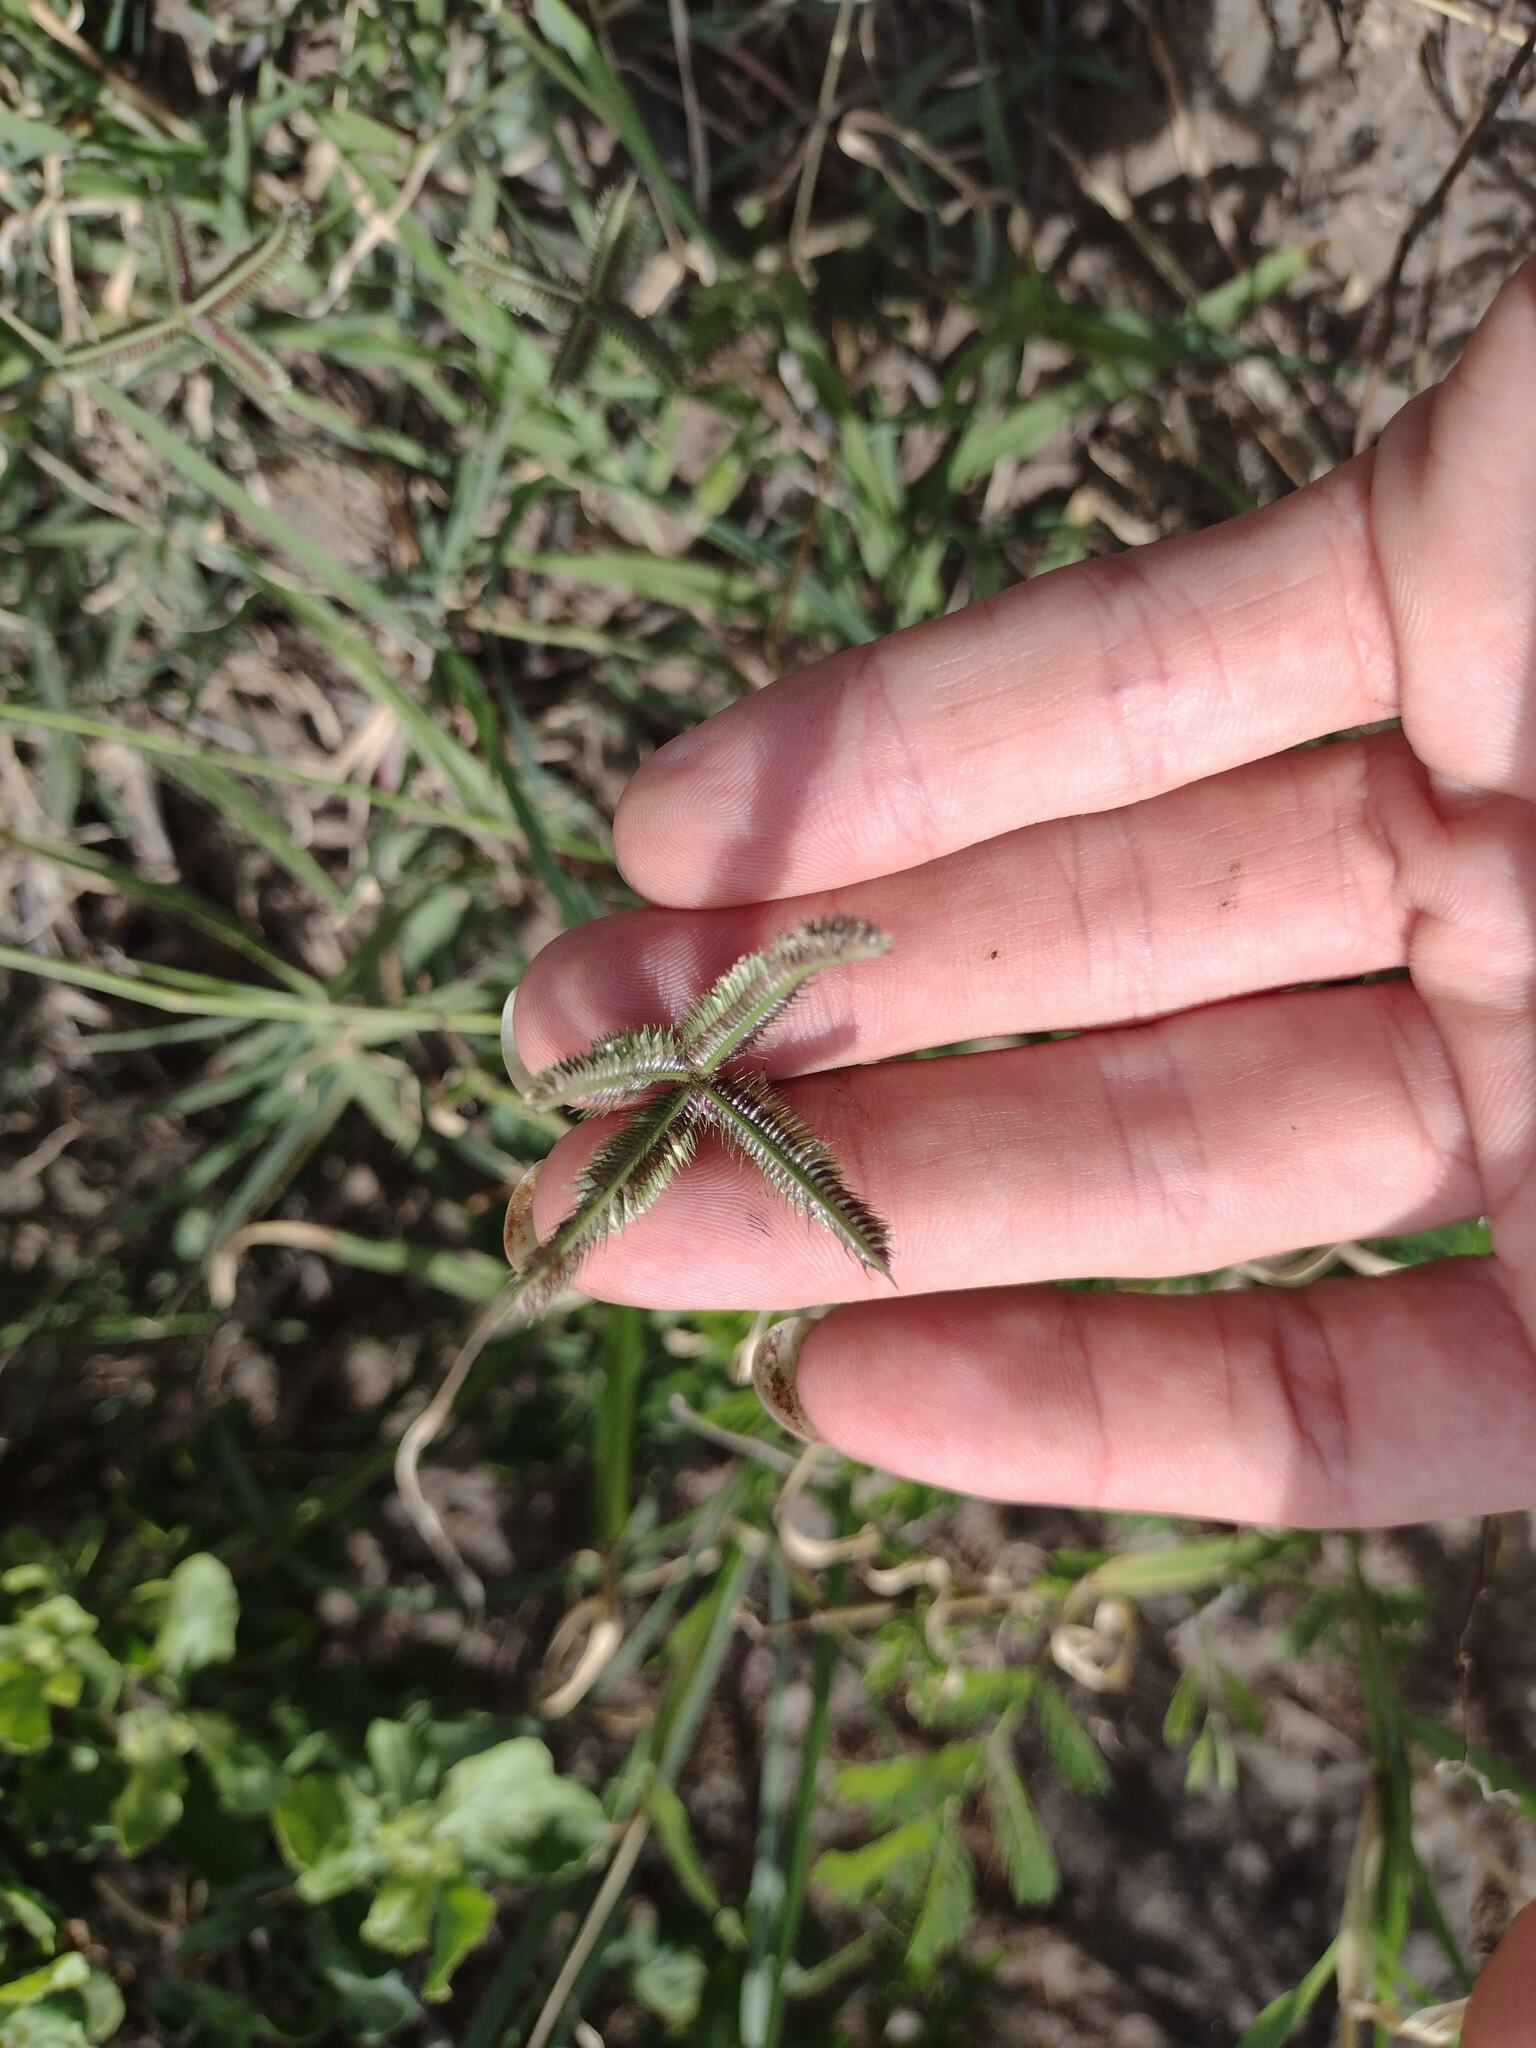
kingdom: Plantae
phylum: Tracheophyta
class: Liliopsida
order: Poales
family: Poaceae
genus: Dactyloctenium
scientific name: Dactyloctenium aegyptium
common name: Egyptian grass
